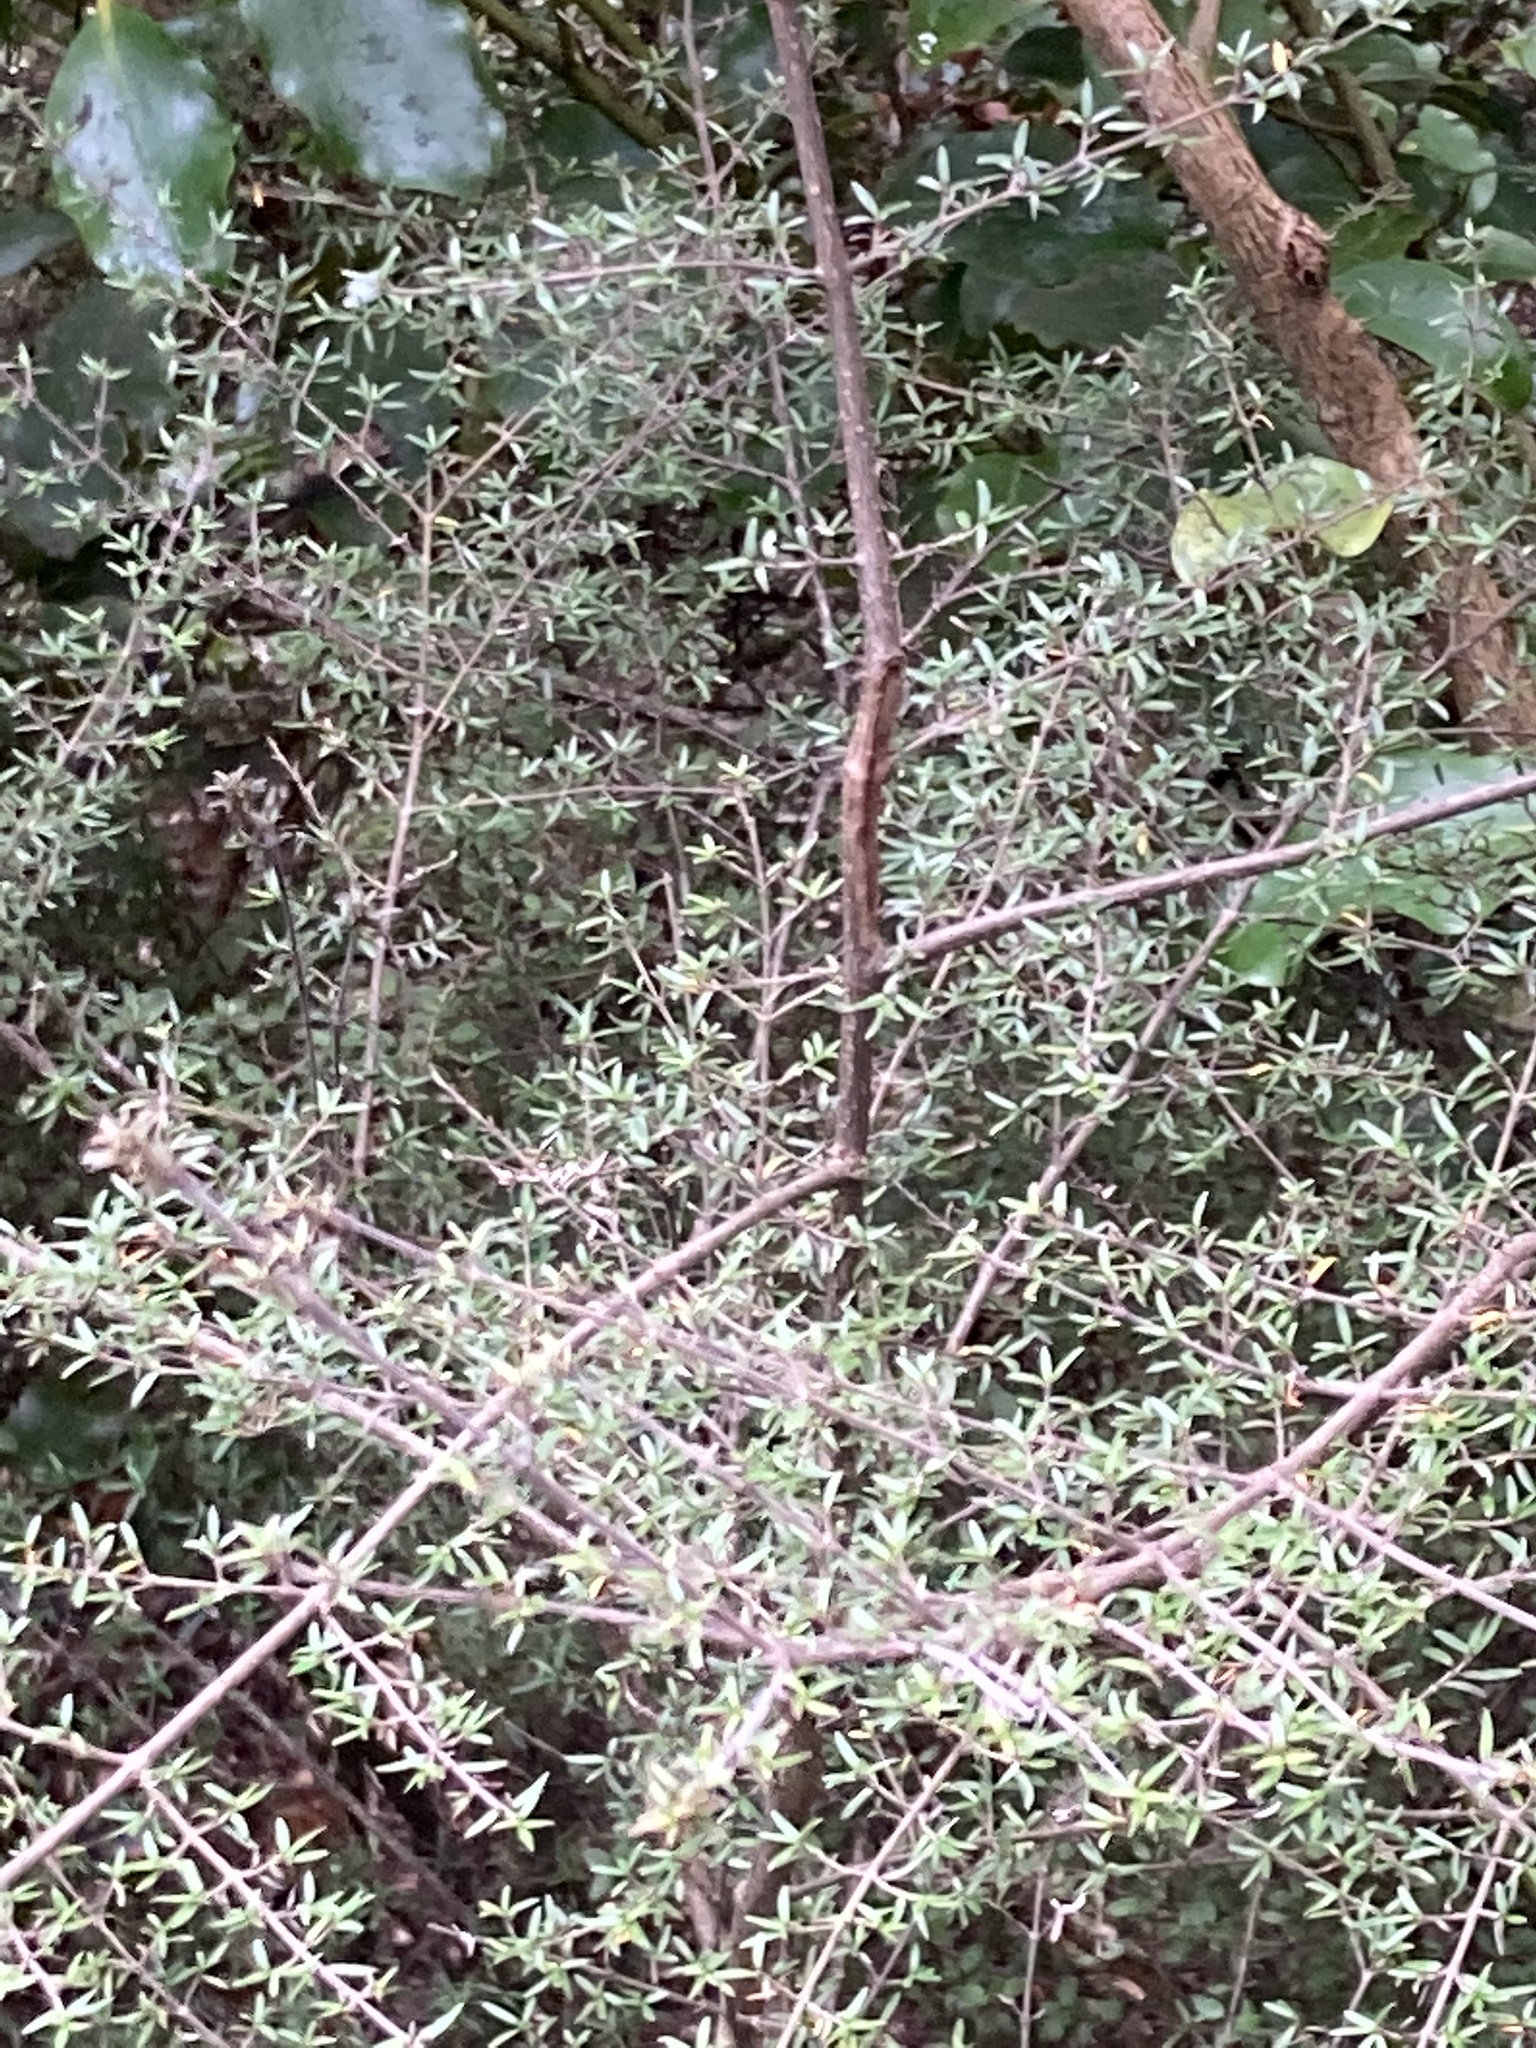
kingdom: Plantae
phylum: Tracheophyta
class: Magnoliopsida
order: Gentianales
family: Rubiaceae
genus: Coprosma
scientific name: Coprosma microcarpa
